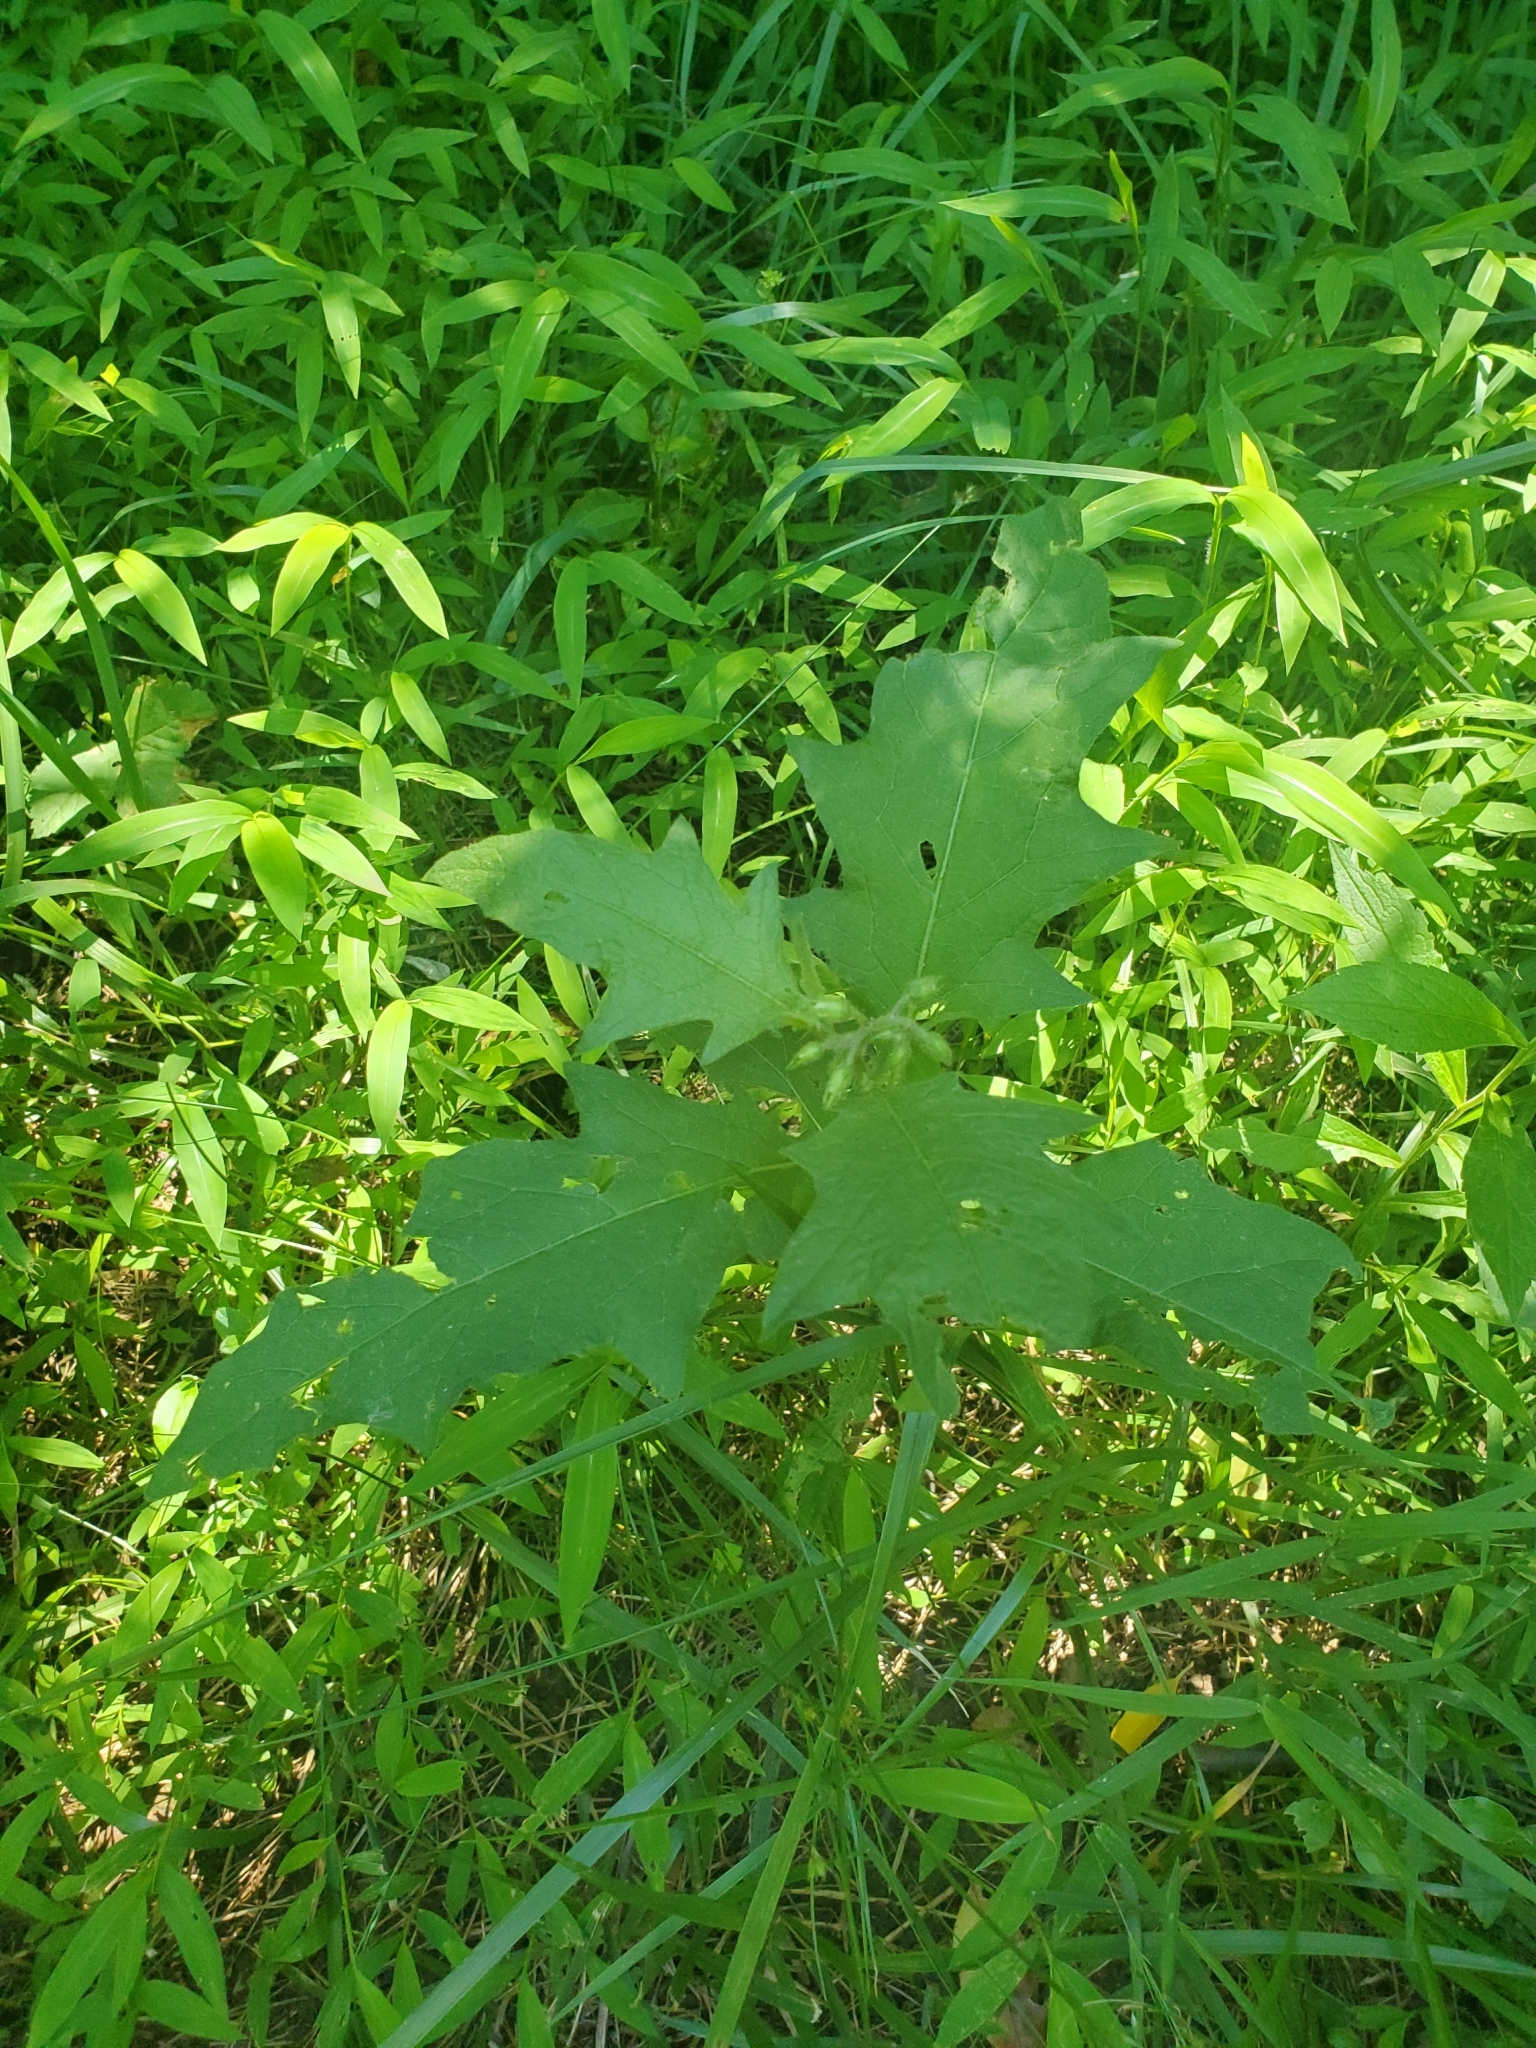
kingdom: Plantae
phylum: Tracheophyta
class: Magnoliopsida
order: Solanales
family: Solanaceae
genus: Solanum
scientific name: Solanum carolinense
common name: Horse-nettle
